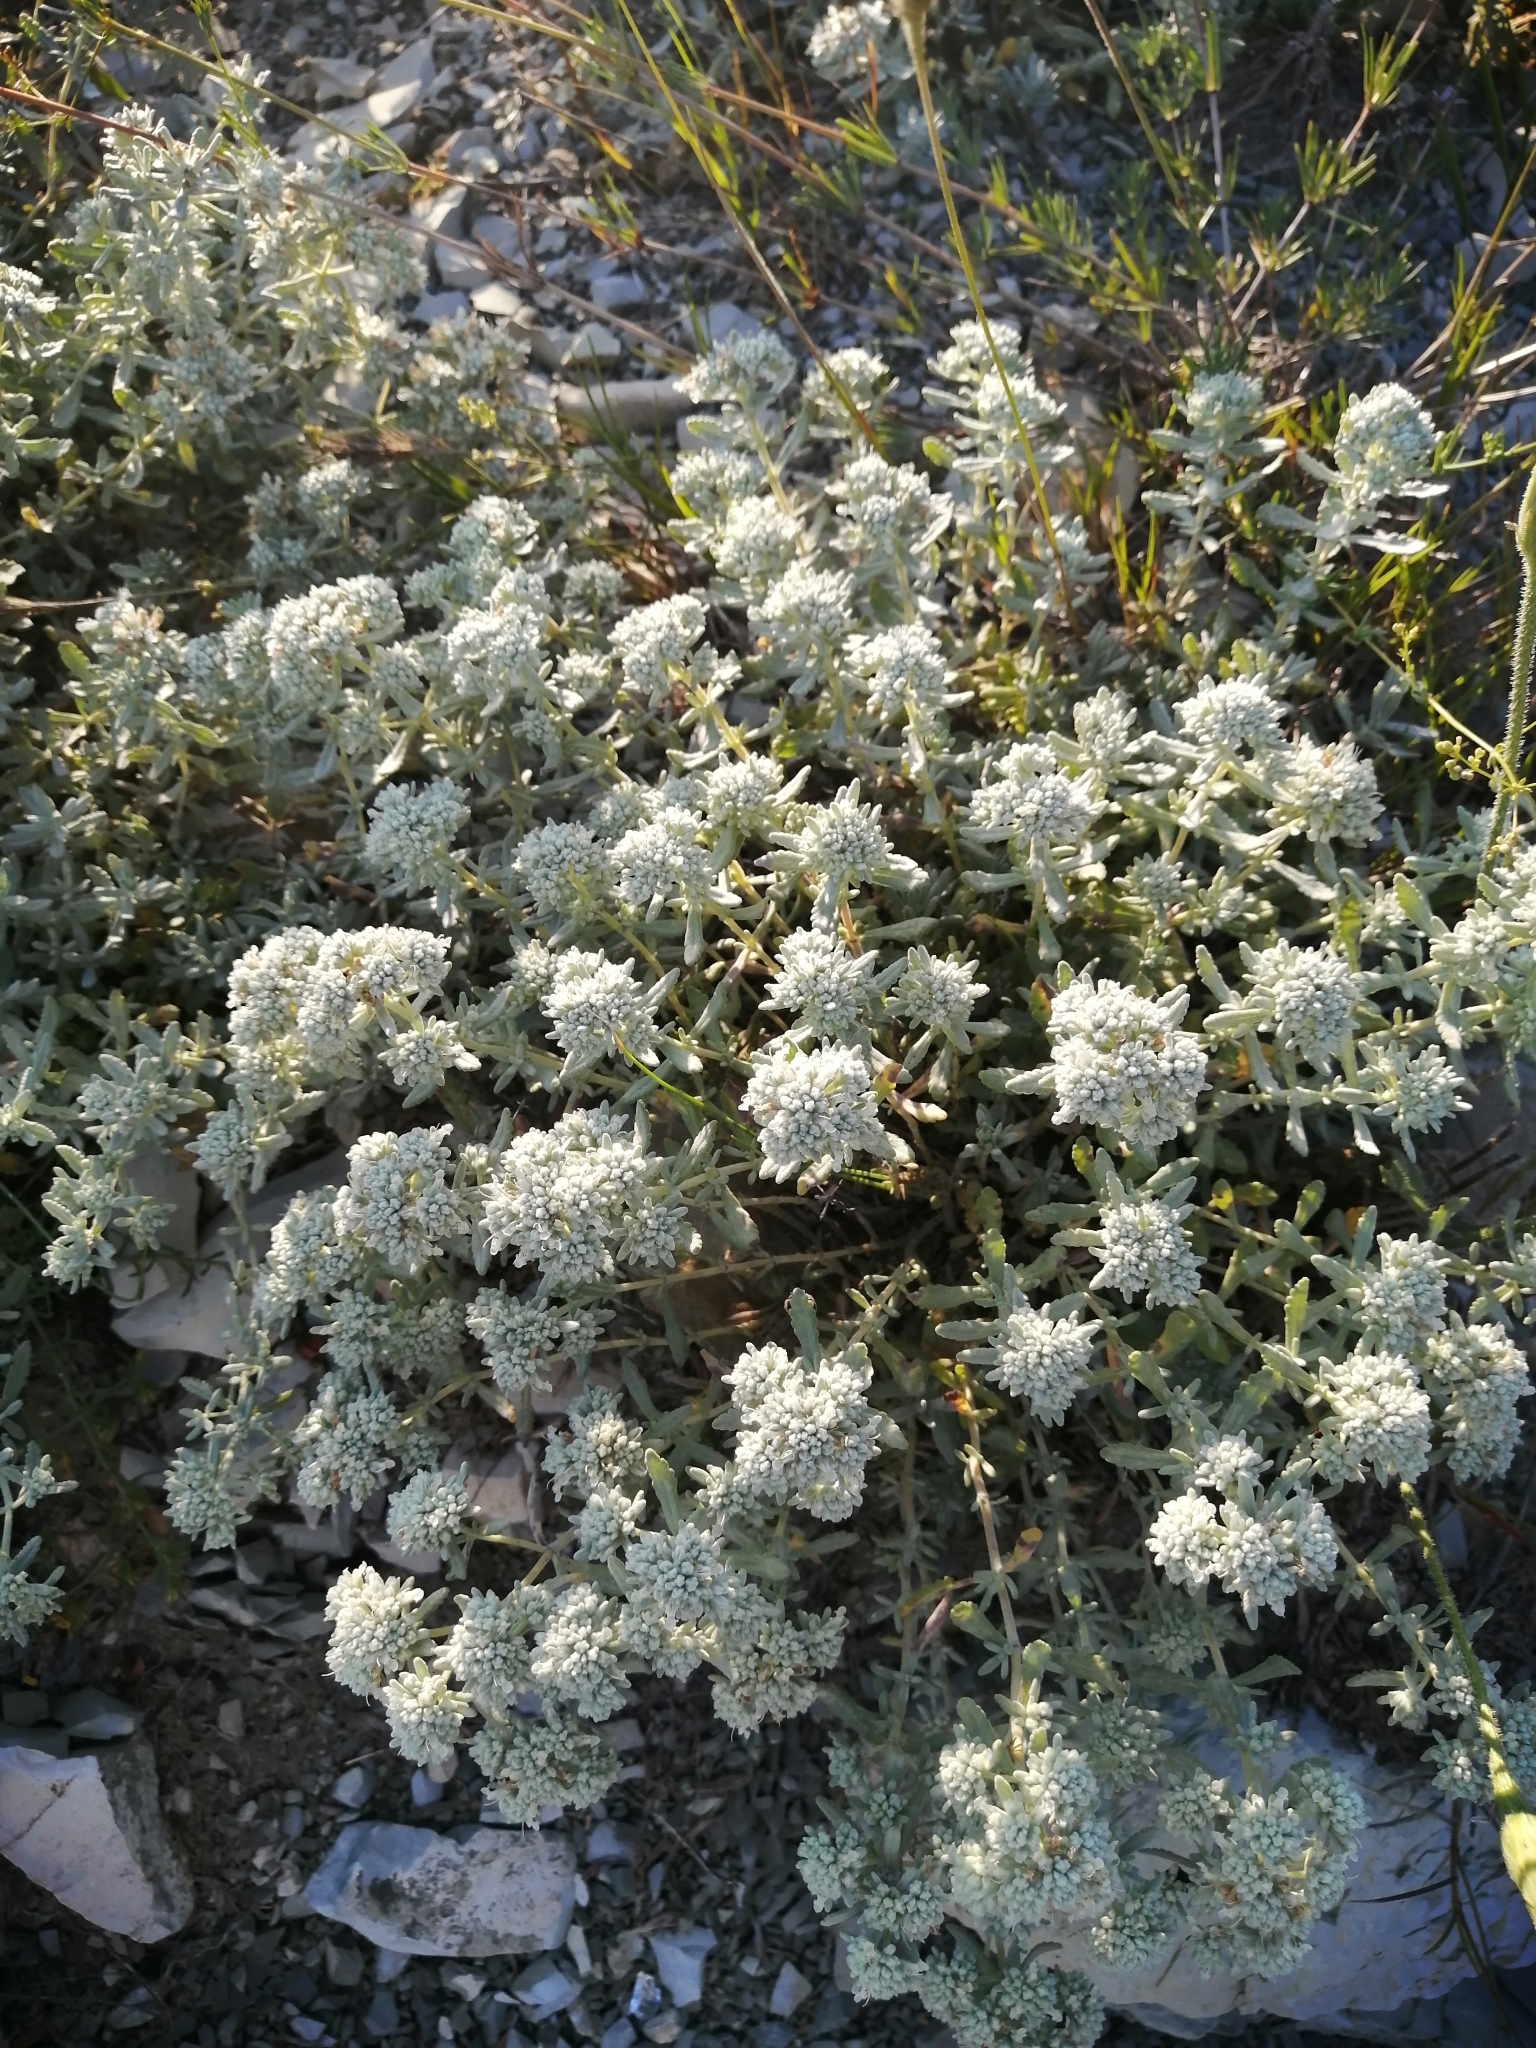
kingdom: Plantae
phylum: Tracheophyta
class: Magnoliopsida
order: Lamiales
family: Lamiaceae
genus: Teucrium
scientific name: Teucrium polium
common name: Poley
